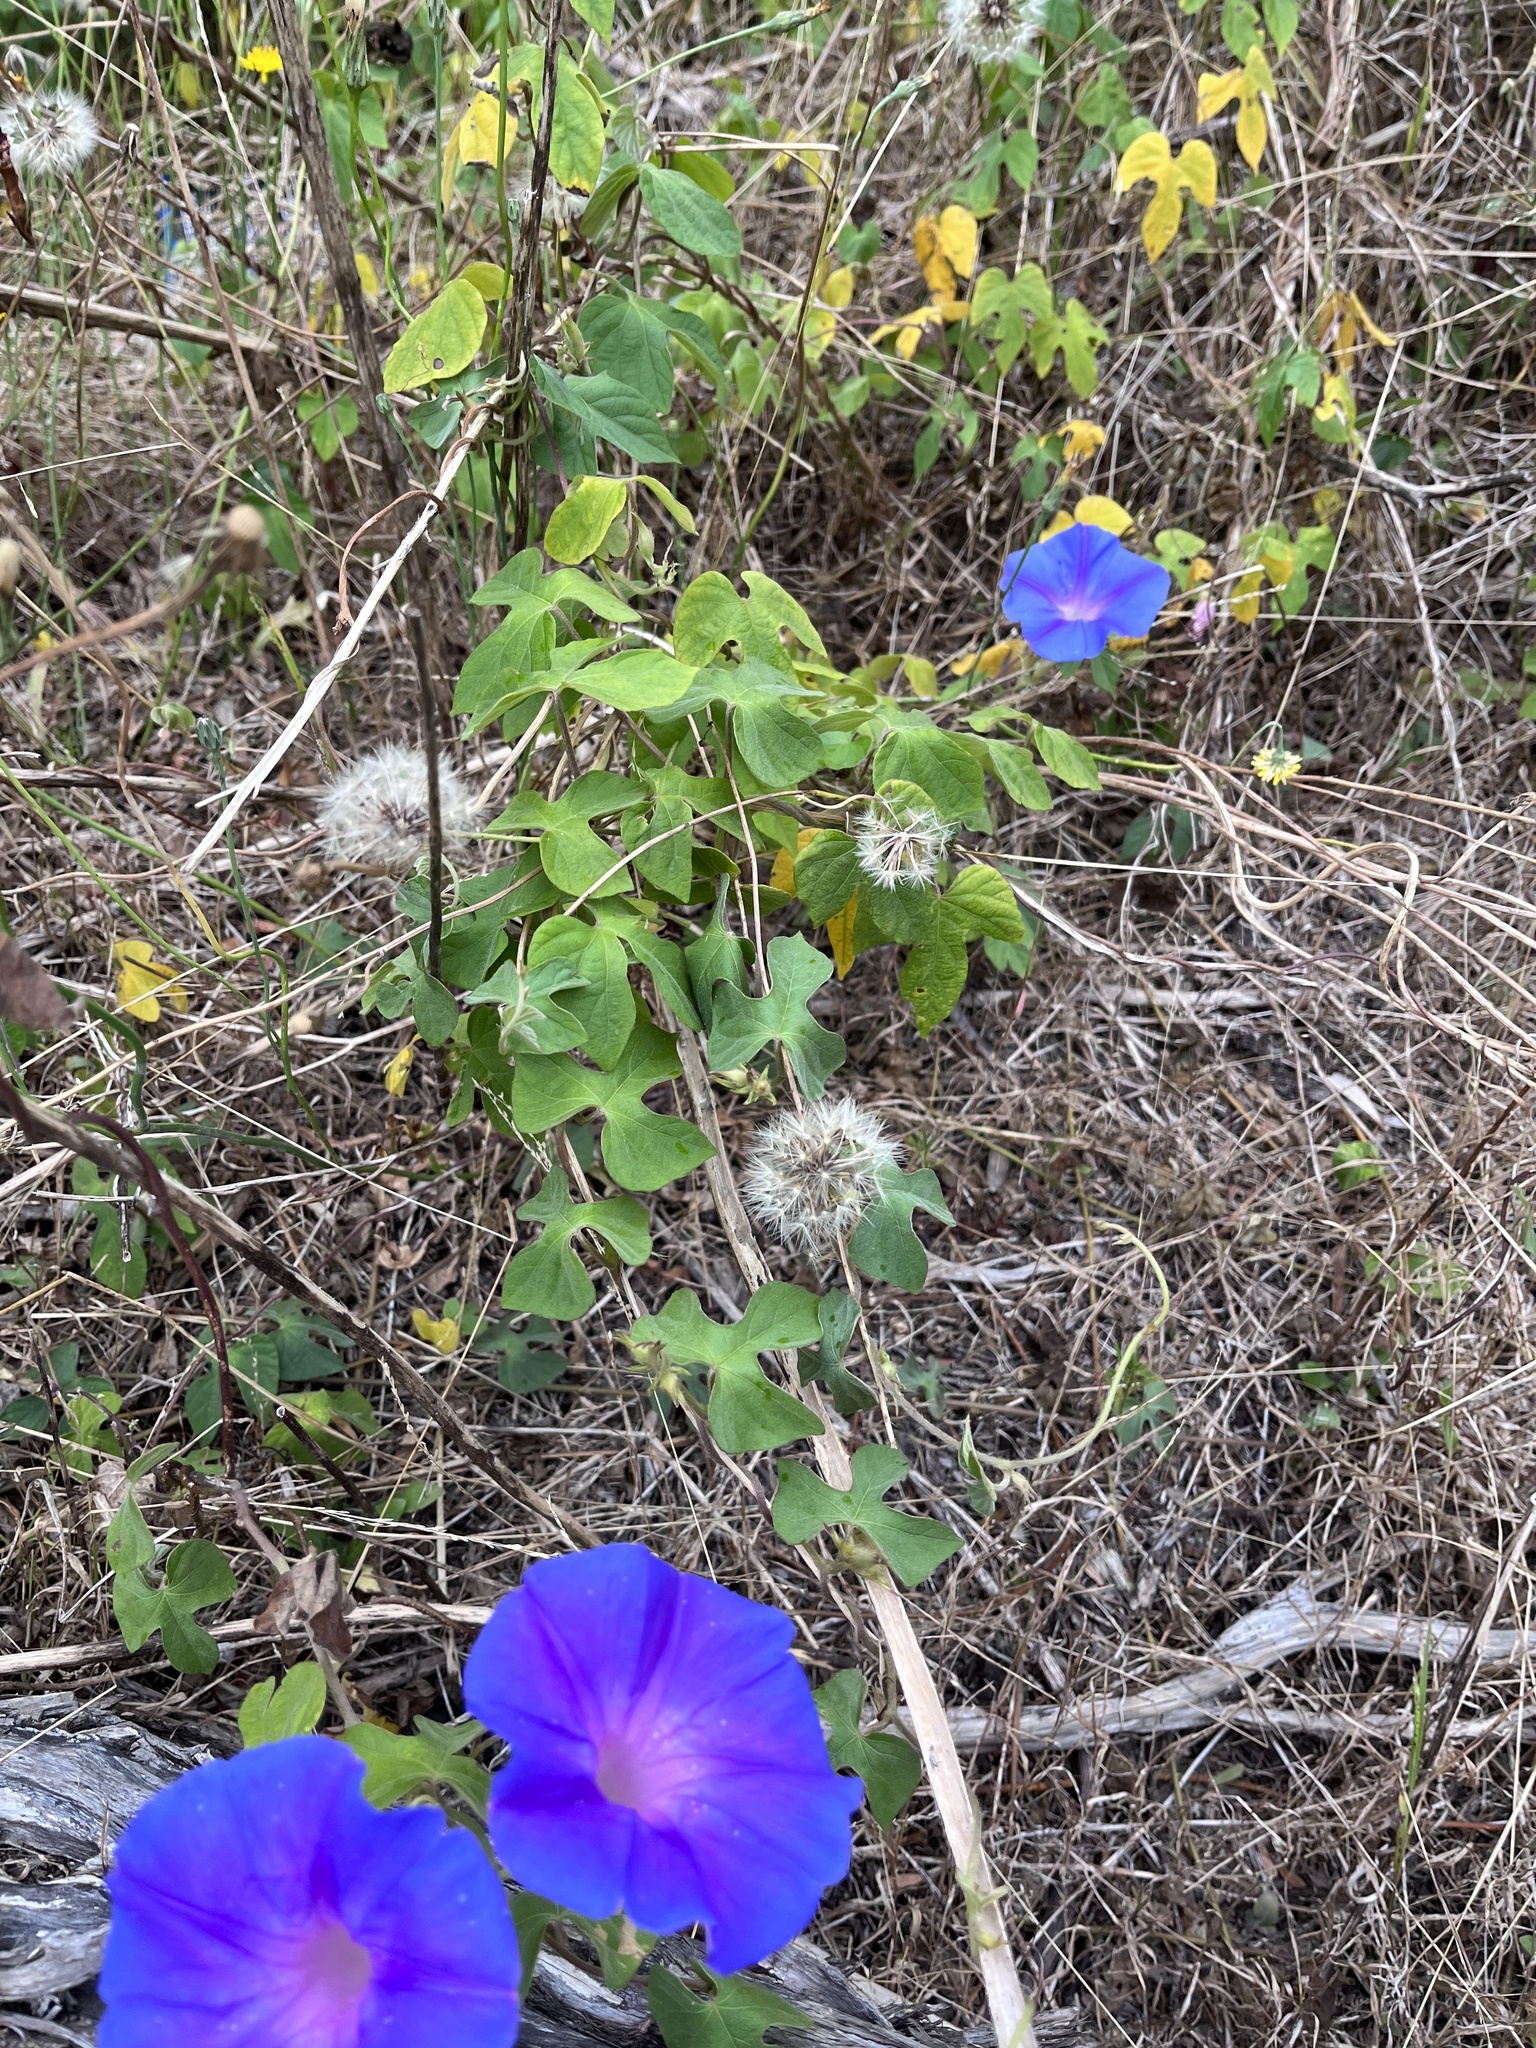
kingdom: Plantae
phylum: Tracheophyta
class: Magnoliopsida
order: Solanales
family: Convolvulaceae
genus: Ipomoea
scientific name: Ipomoea indica
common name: Blue dawnflower
